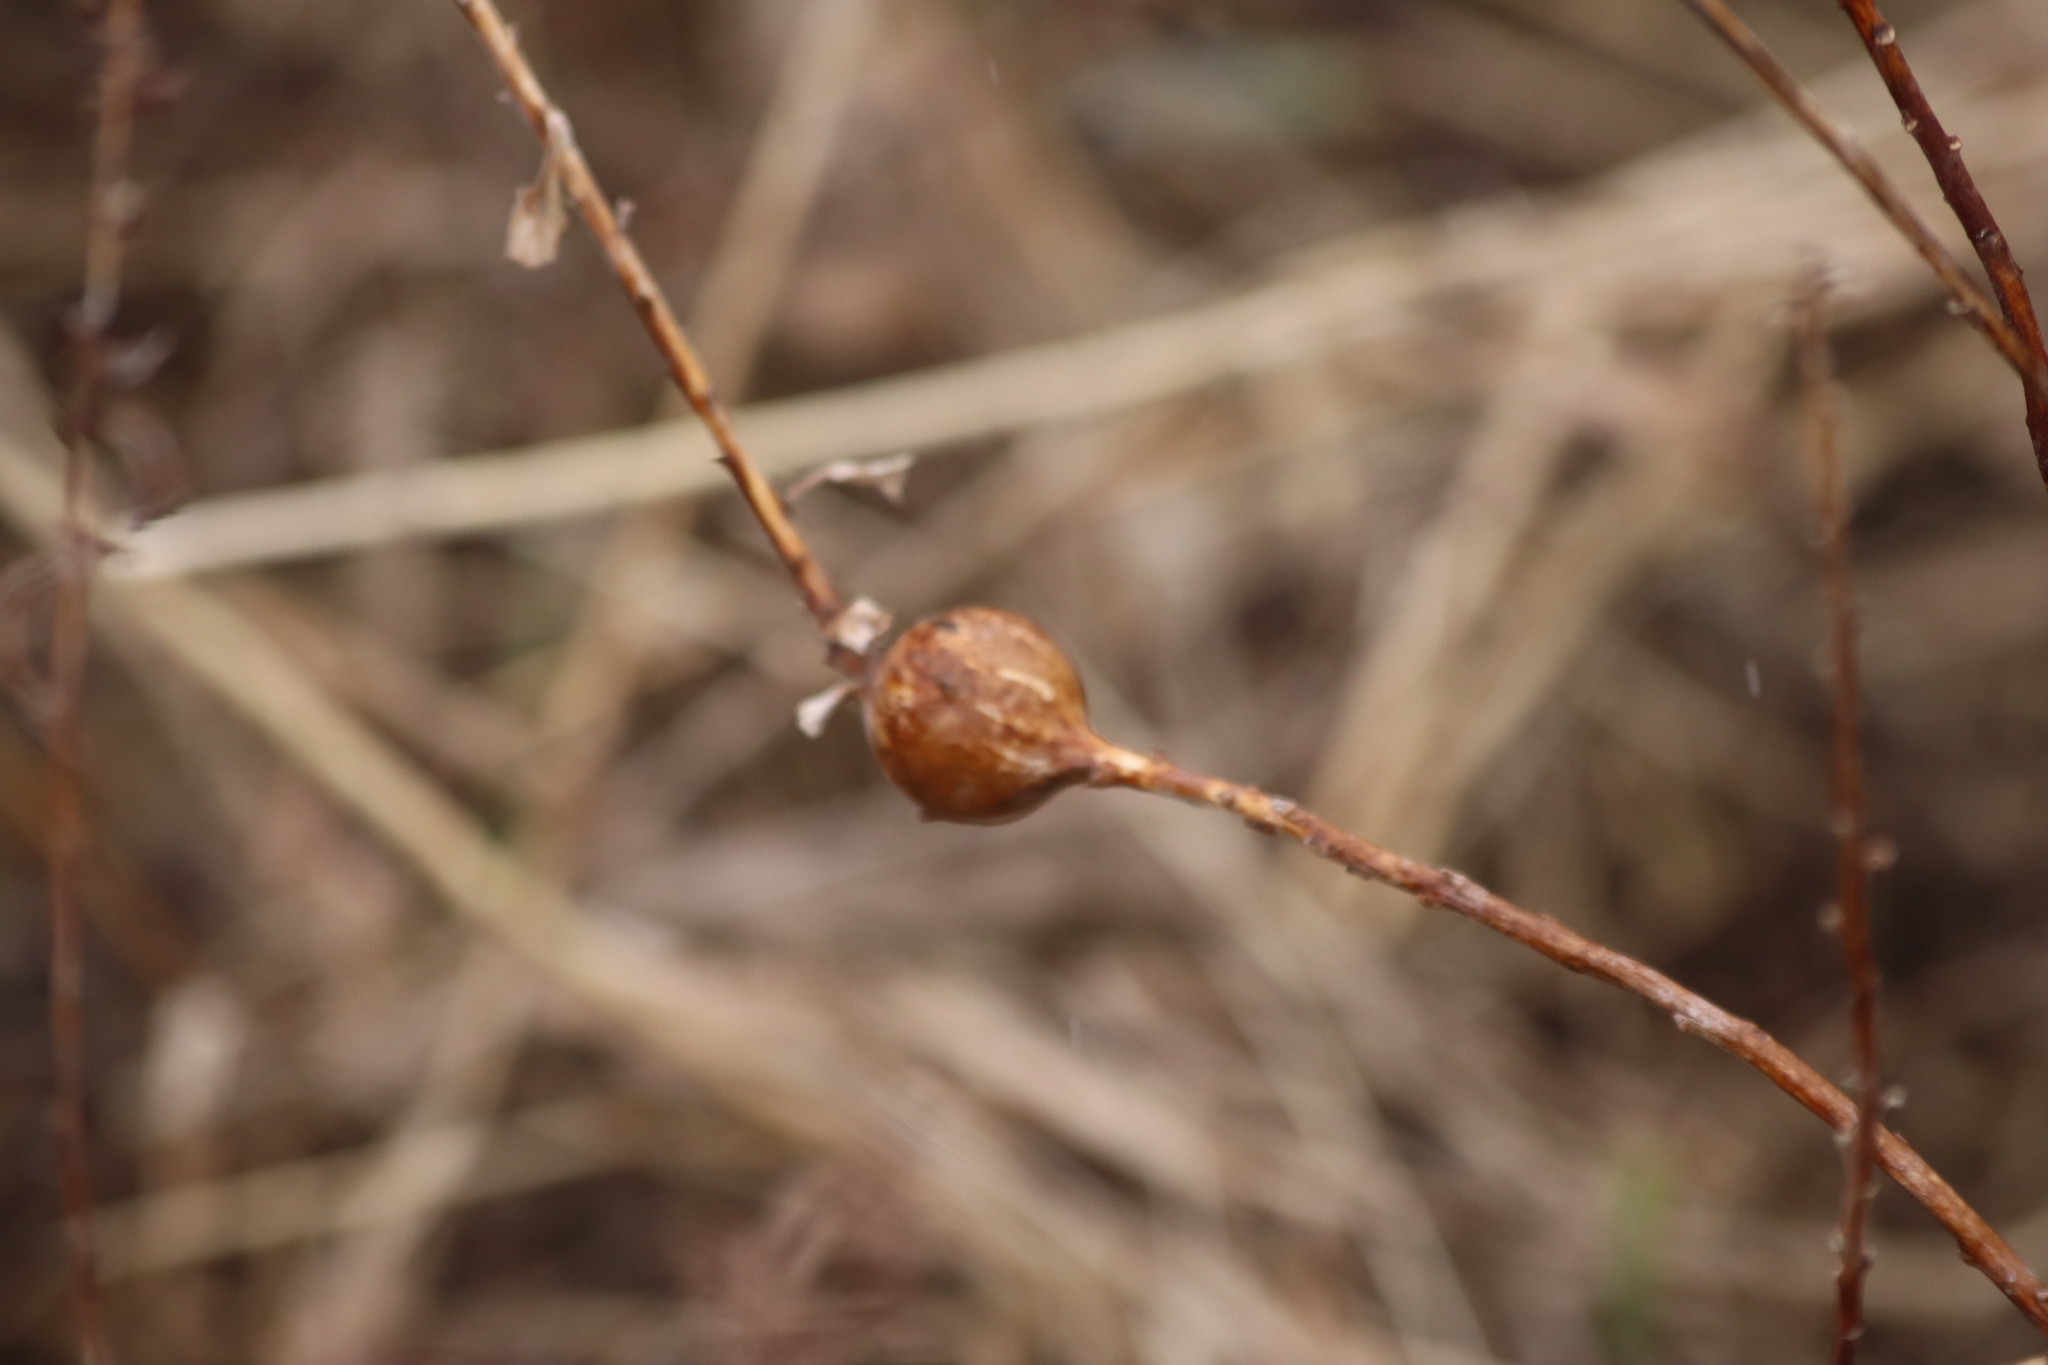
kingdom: Animalia
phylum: Arthropoda
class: Insecta
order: Diptera
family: Tephritidae
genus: Eurosta
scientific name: Eurosta solidaginis
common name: Goldenrod gall fly
